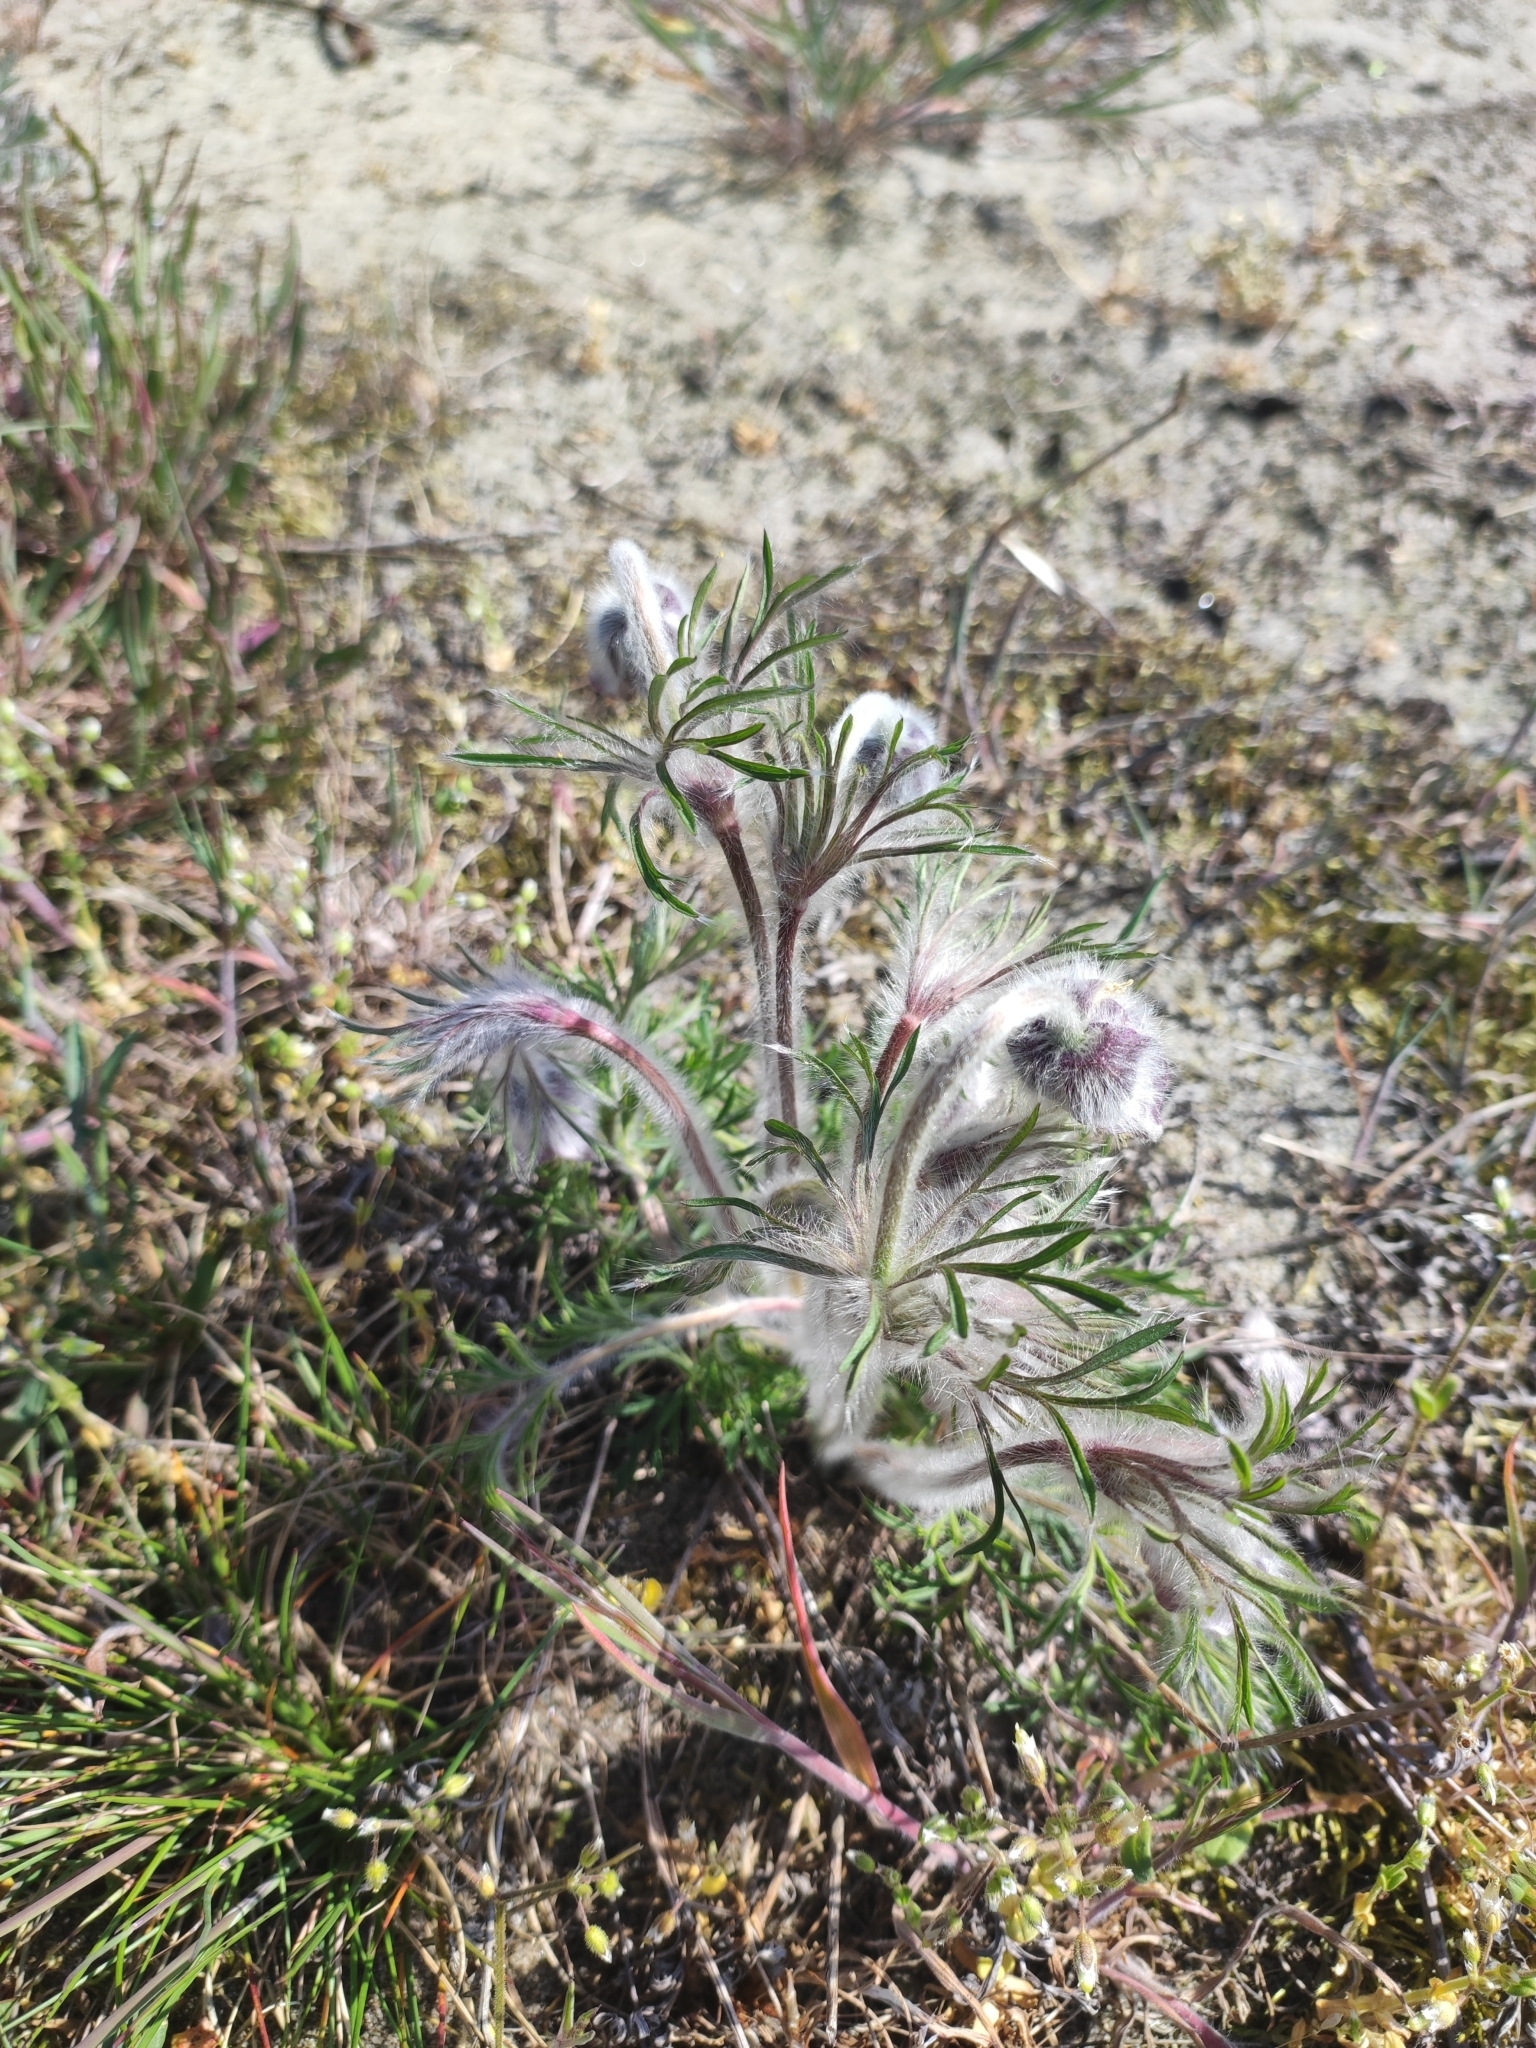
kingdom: Plantae
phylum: Tracheophyta
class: Magnoliopsida
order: Ranunculales
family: Ranunculaceae
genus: Pulsatilla
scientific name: Pulsatilla pratensis
